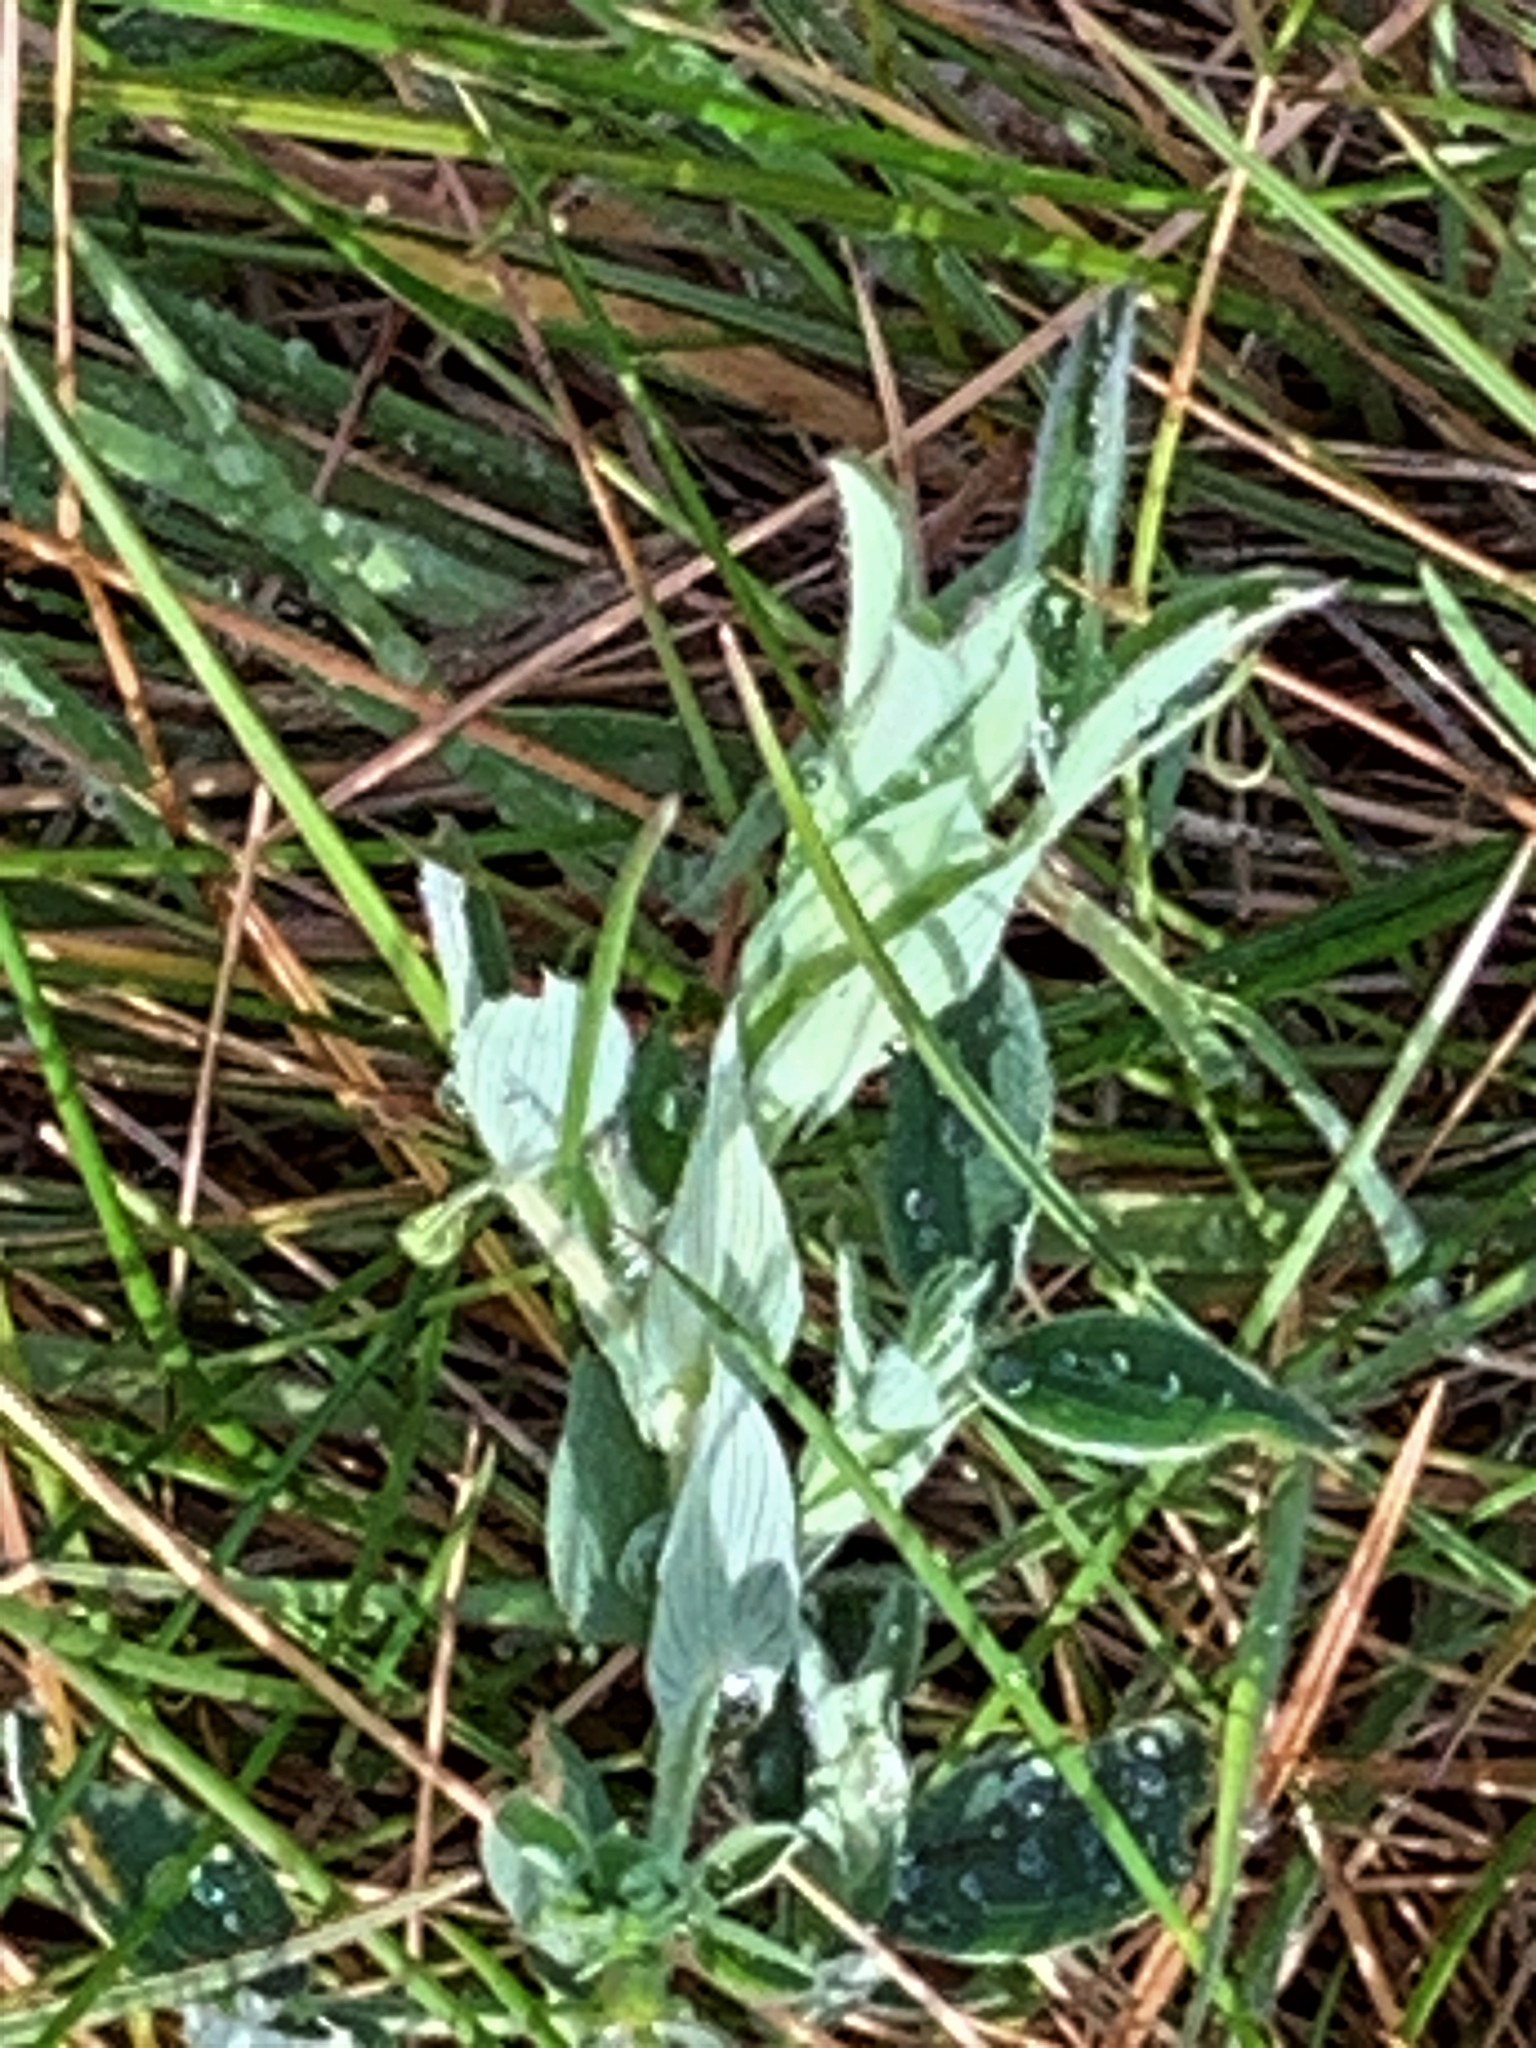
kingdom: Plantae
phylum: Tracheophyta
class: Magnoliopsida
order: Fabales
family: Fabaceae
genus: Lathyrus
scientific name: Lathyrus pratensis
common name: Meadow vetchling
